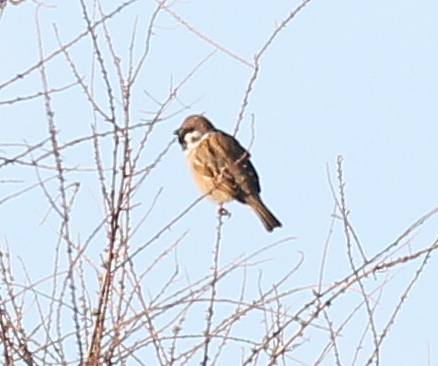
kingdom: Animalia
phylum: Chordata
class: Aves
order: Passeriformes
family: Passeridae
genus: Passer
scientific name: Passer montanus
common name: Eurasian tree sparrow
